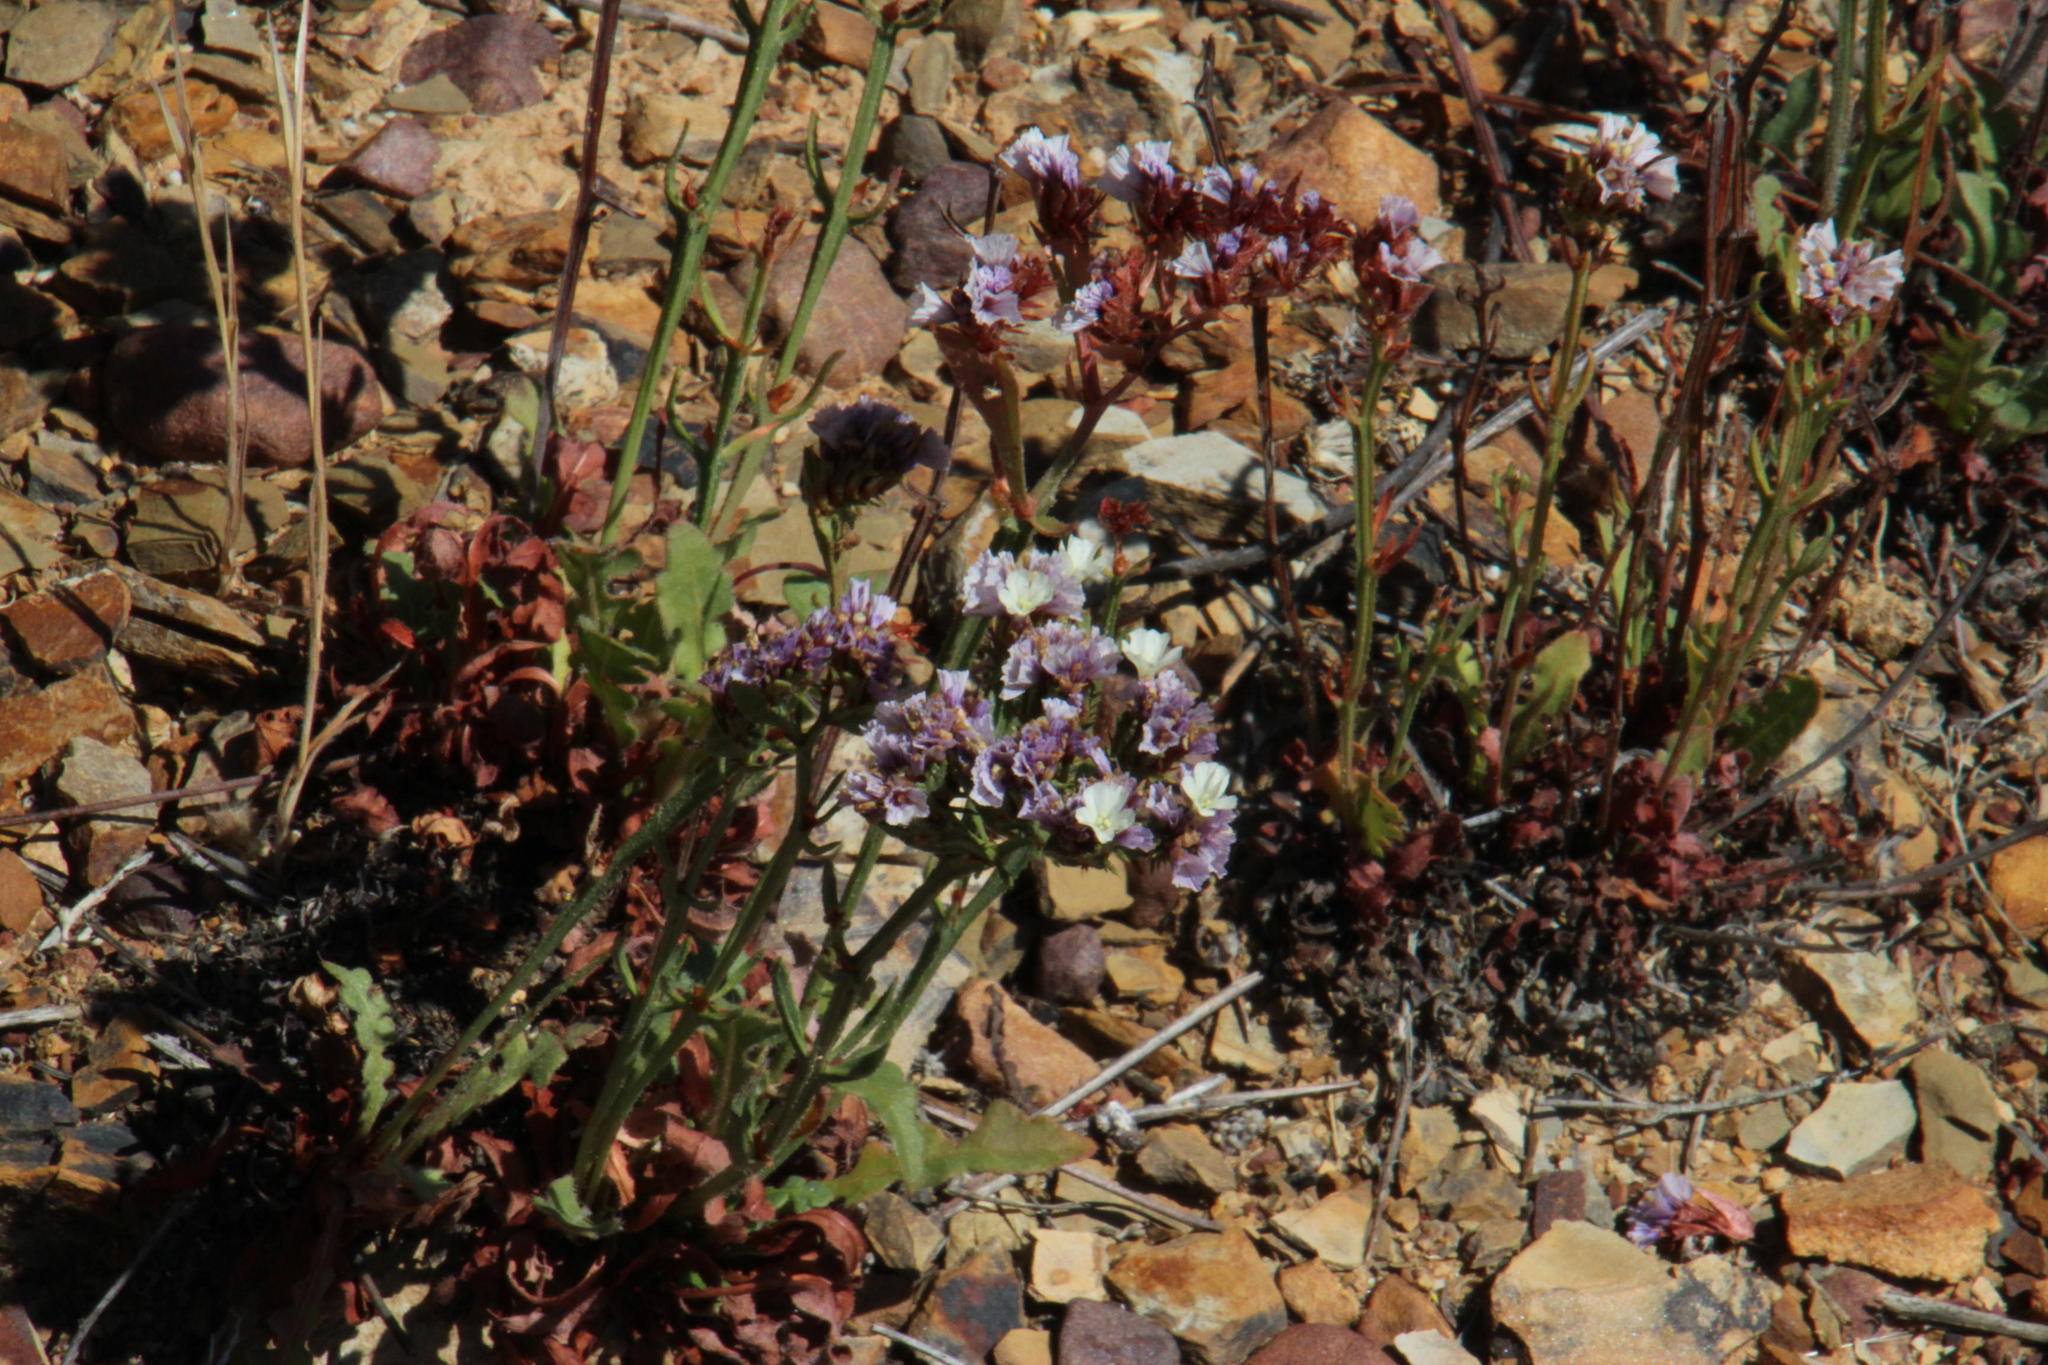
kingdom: Plantae
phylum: Tracheophyta
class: Magnoliopsida
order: Caryophyllales
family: Plumbaginaceae
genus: Limonium
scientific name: Limonium sinuatum
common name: Statice
